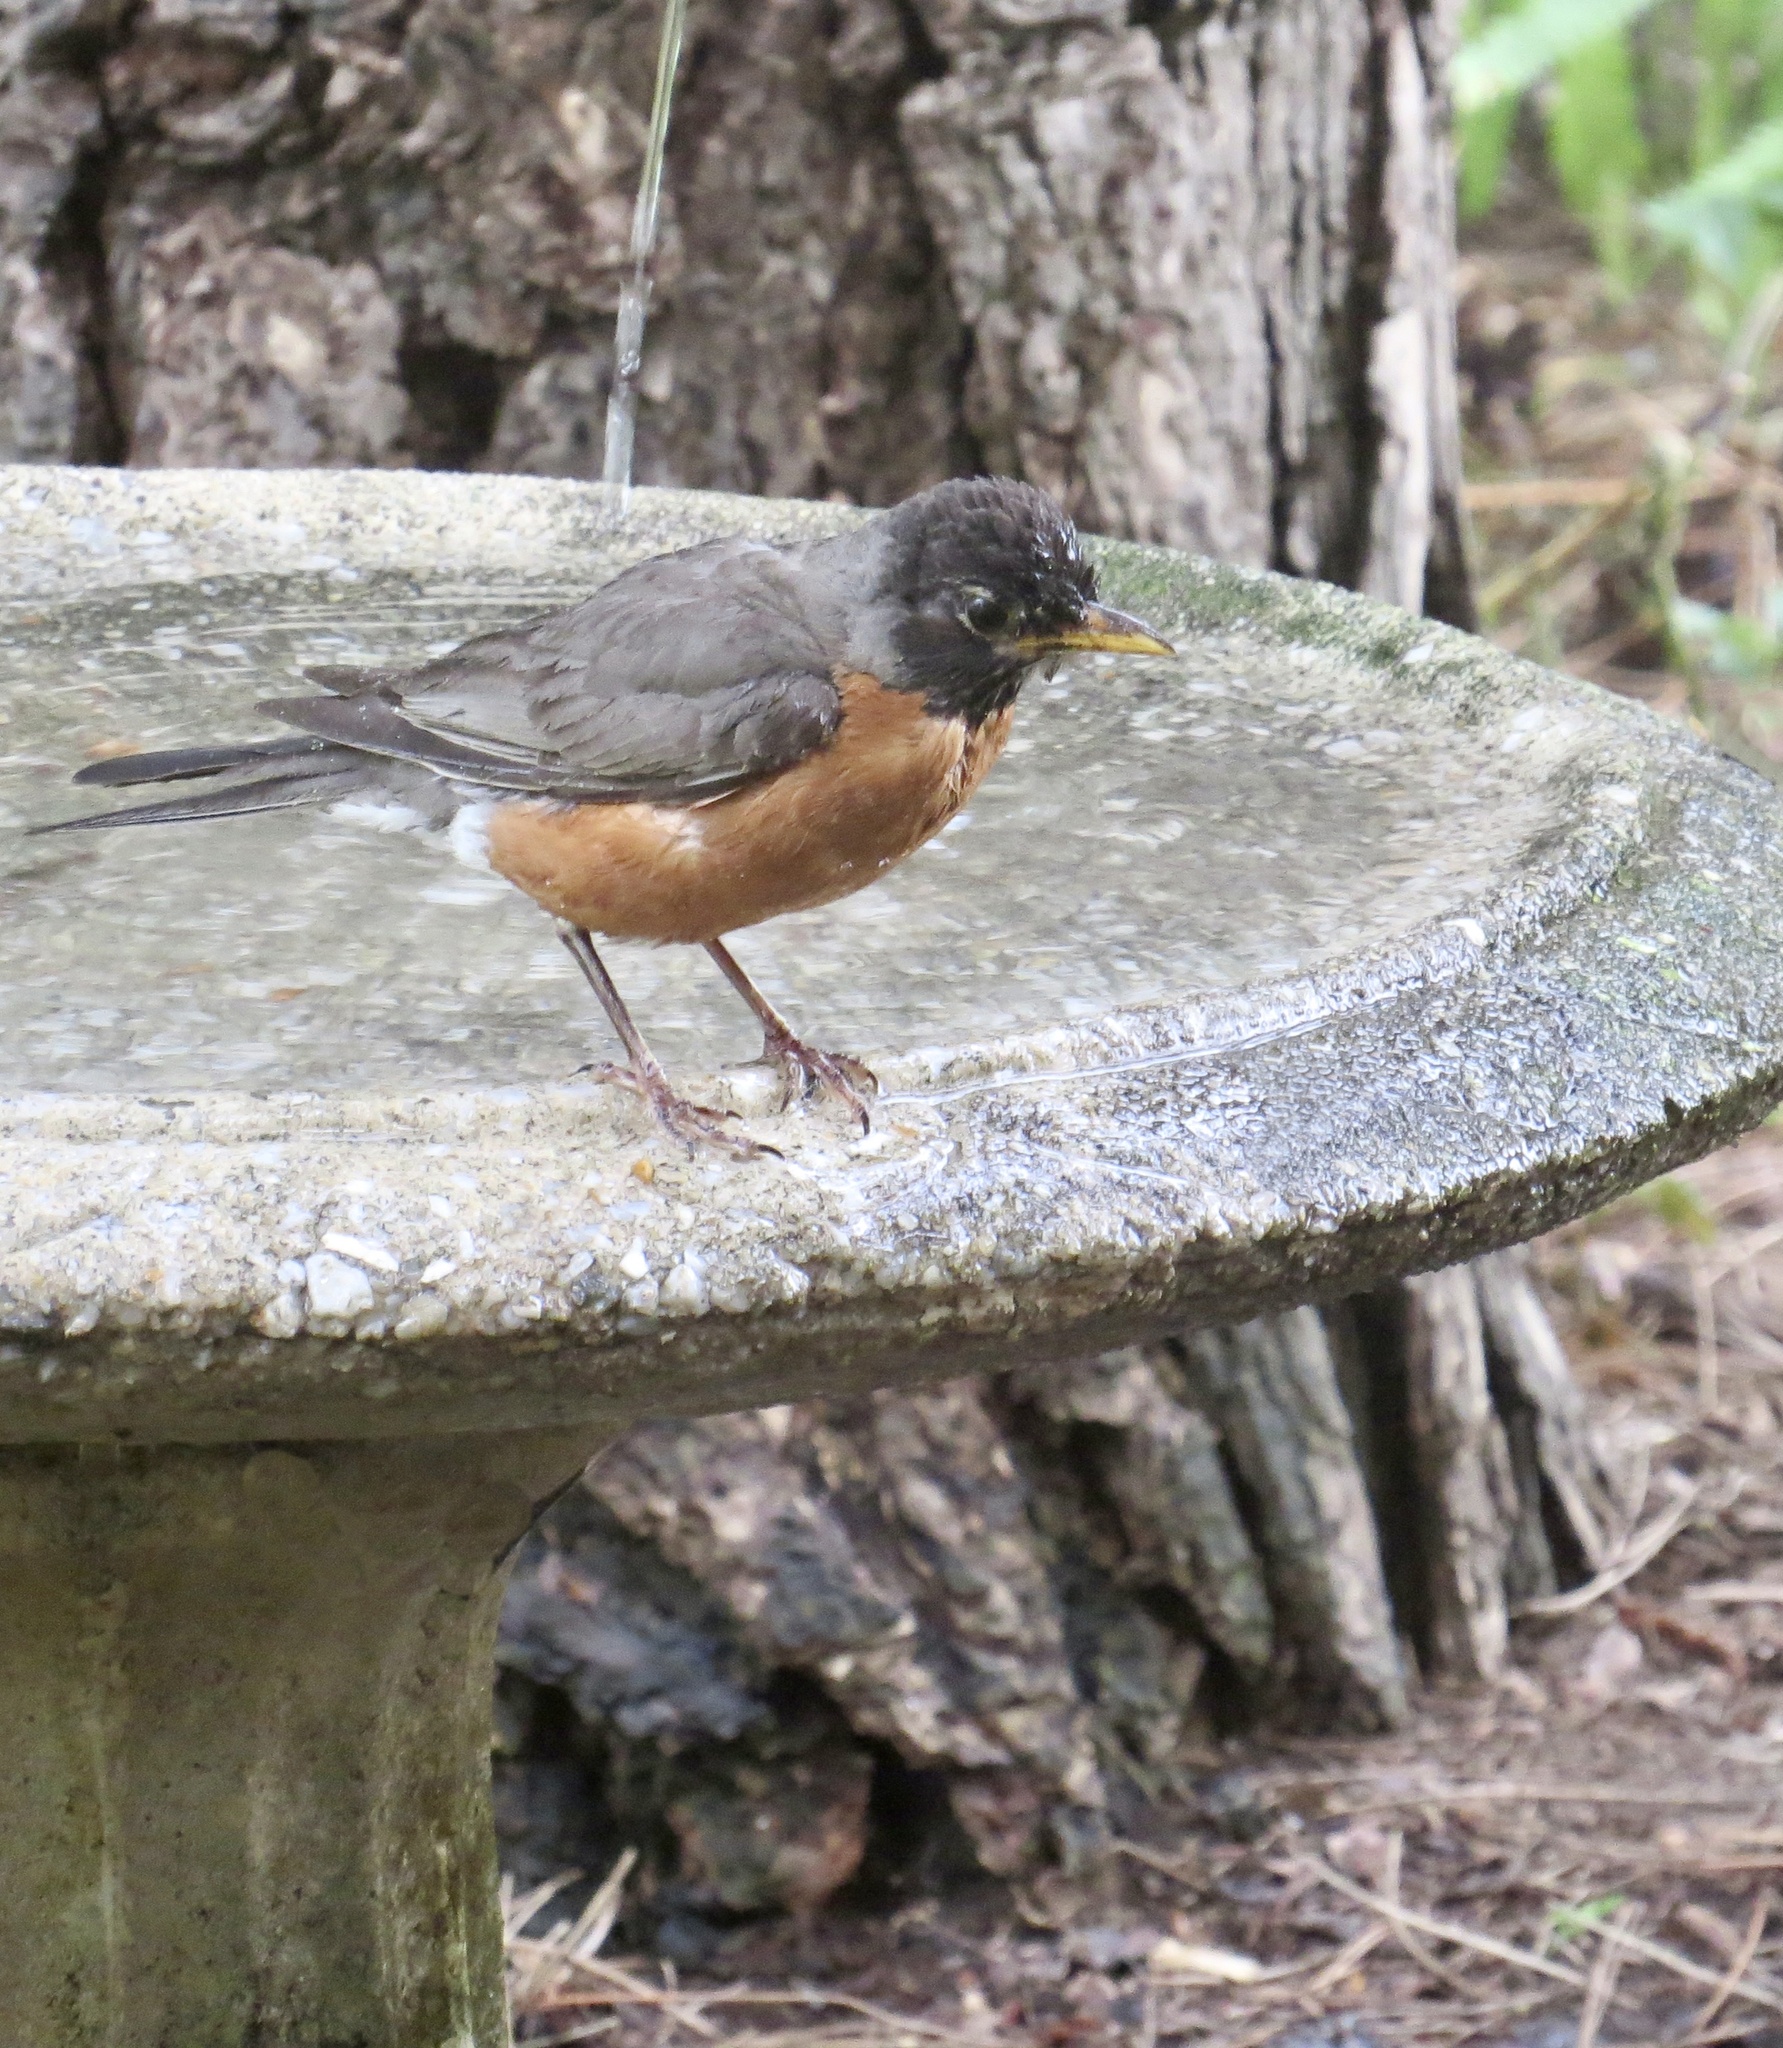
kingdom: Animalia
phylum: Chordata
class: Aves
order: Passeriformes
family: Turdidae
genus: Turdus
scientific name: Turdus migratorius
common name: American robin
